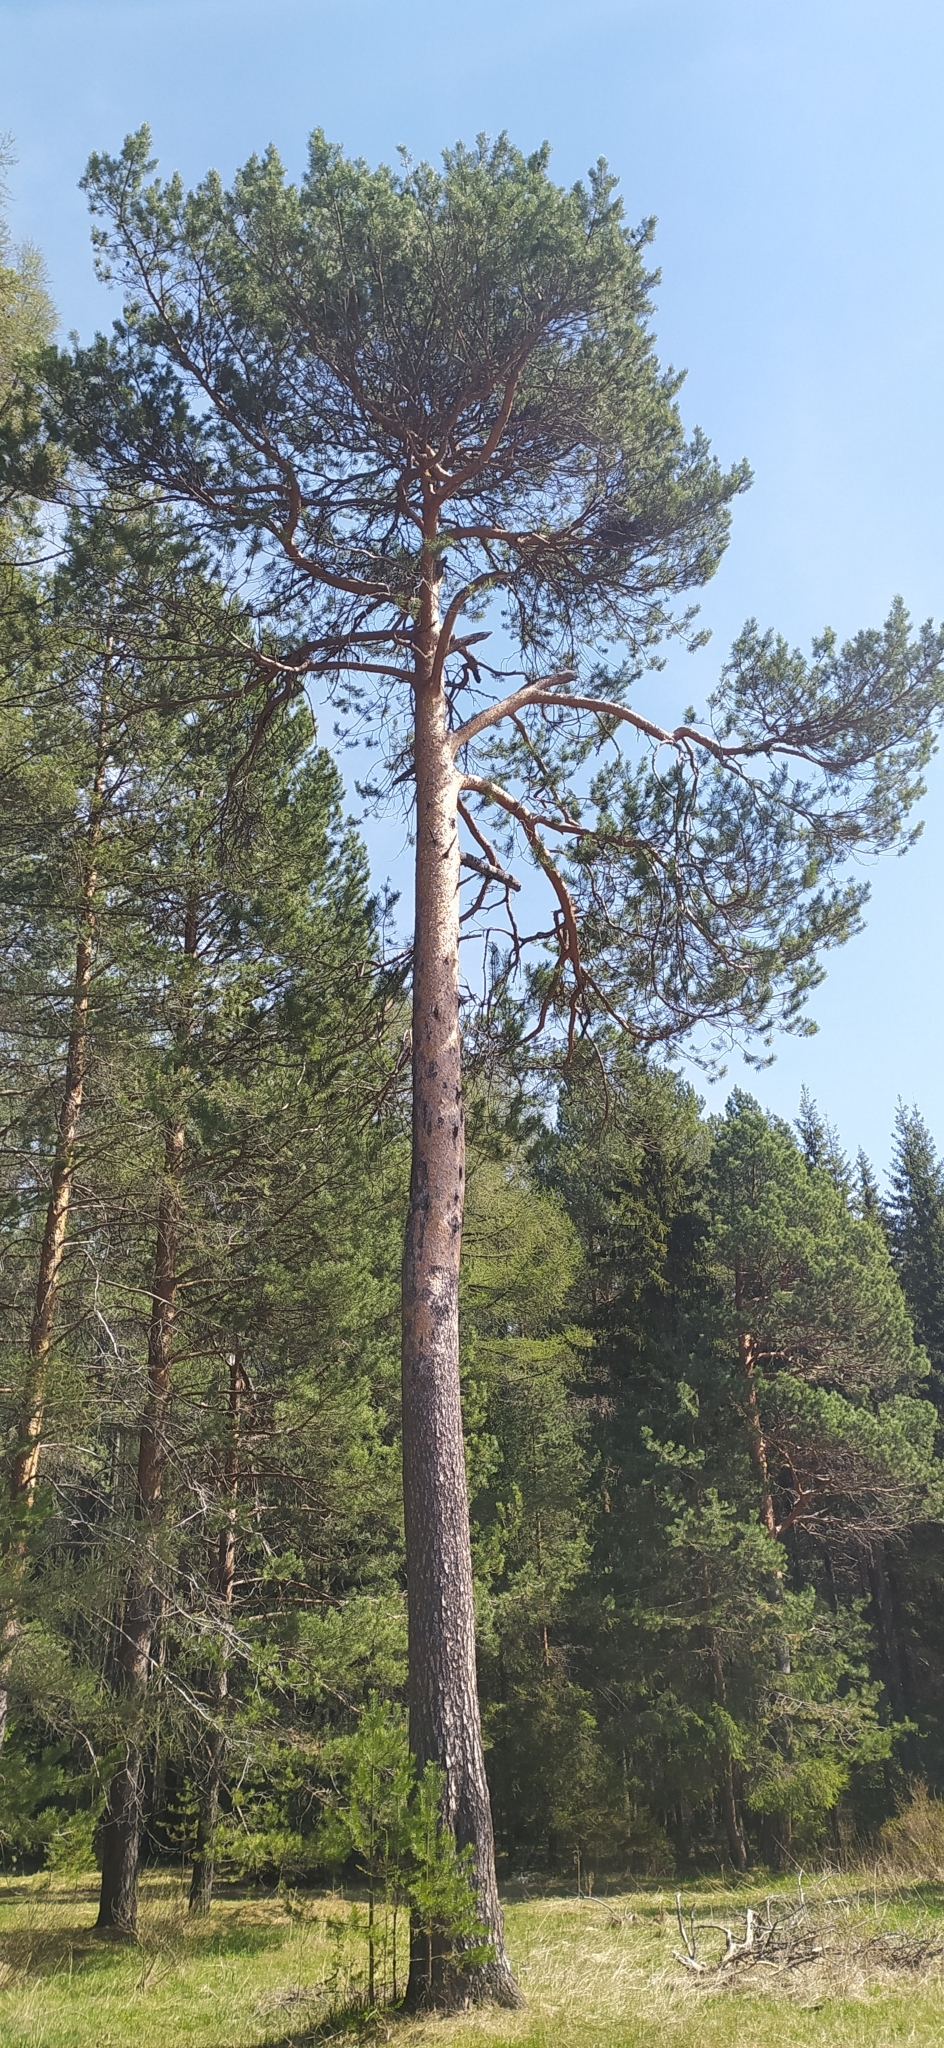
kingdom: Plantae
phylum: Tracheophyta
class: Pinopsida
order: Pinales
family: Pinaceae
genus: Pinus
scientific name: Pinus sylvestris
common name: Scots pine
